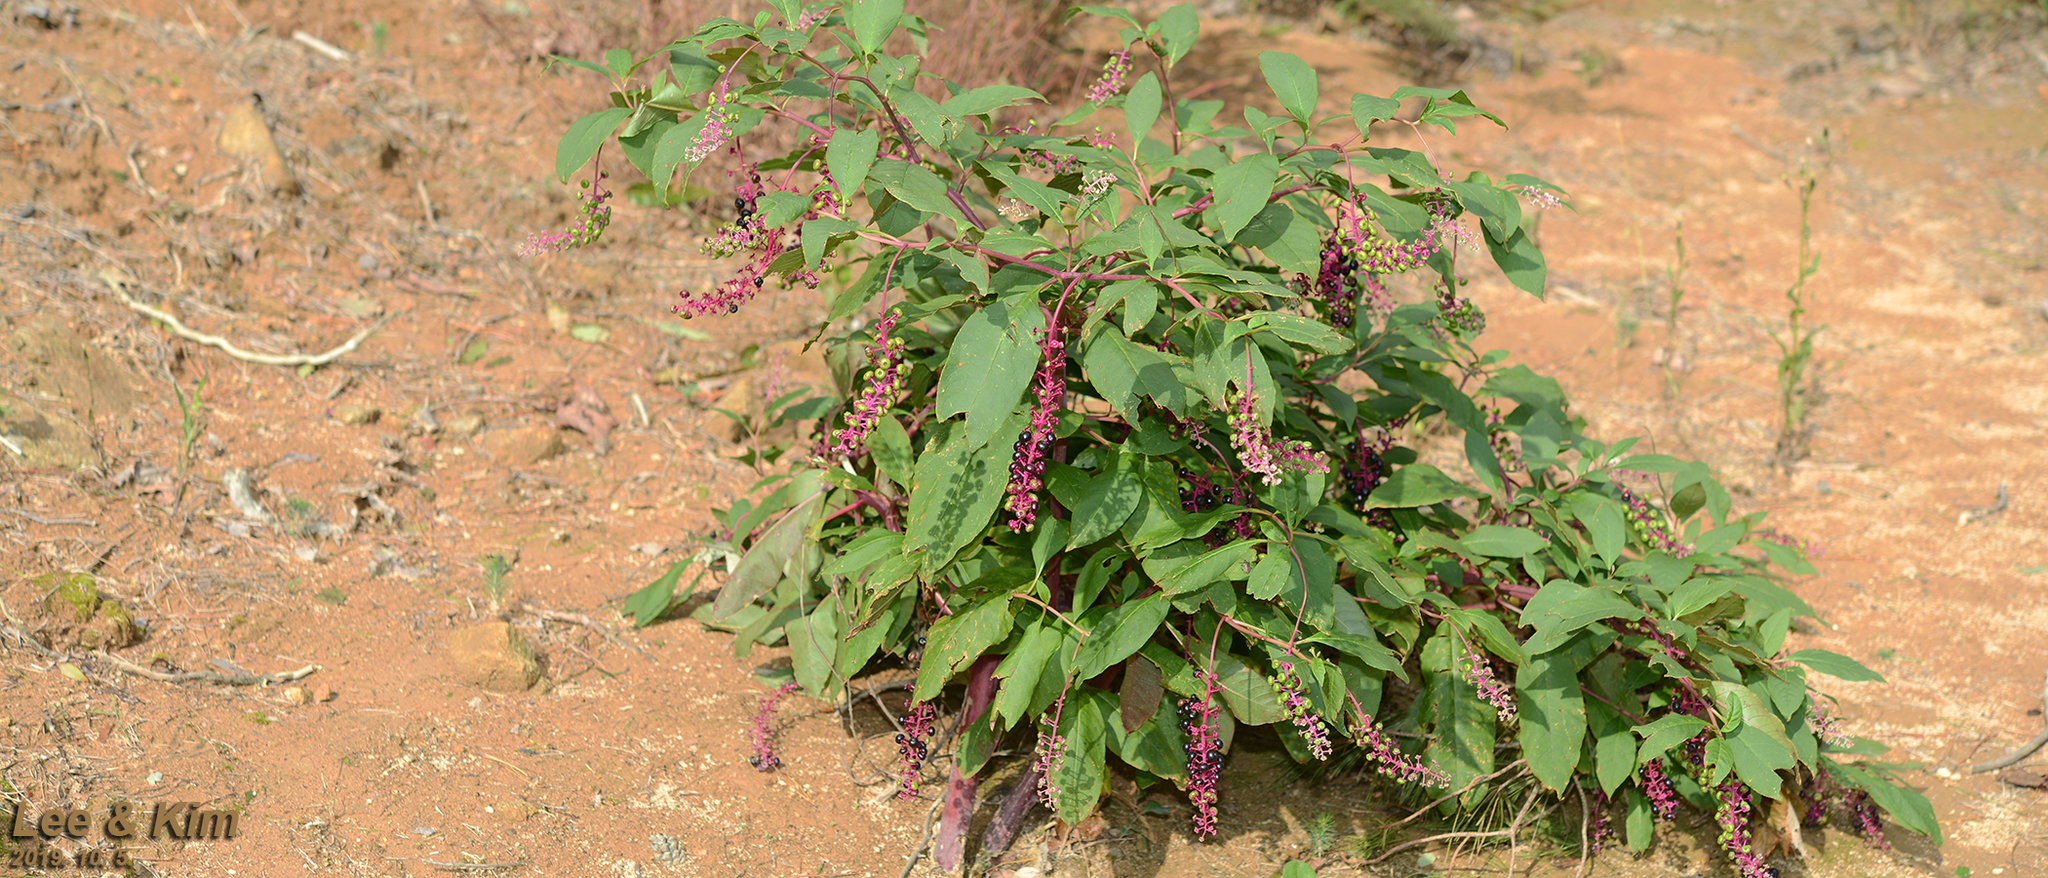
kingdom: Plantae
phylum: Tracheophyta
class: Magnoliopsida
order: Caryophyllales
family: Phytolaccaceae
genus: Phytolacca
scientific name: Phytolacca americana
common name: American pokeweed
